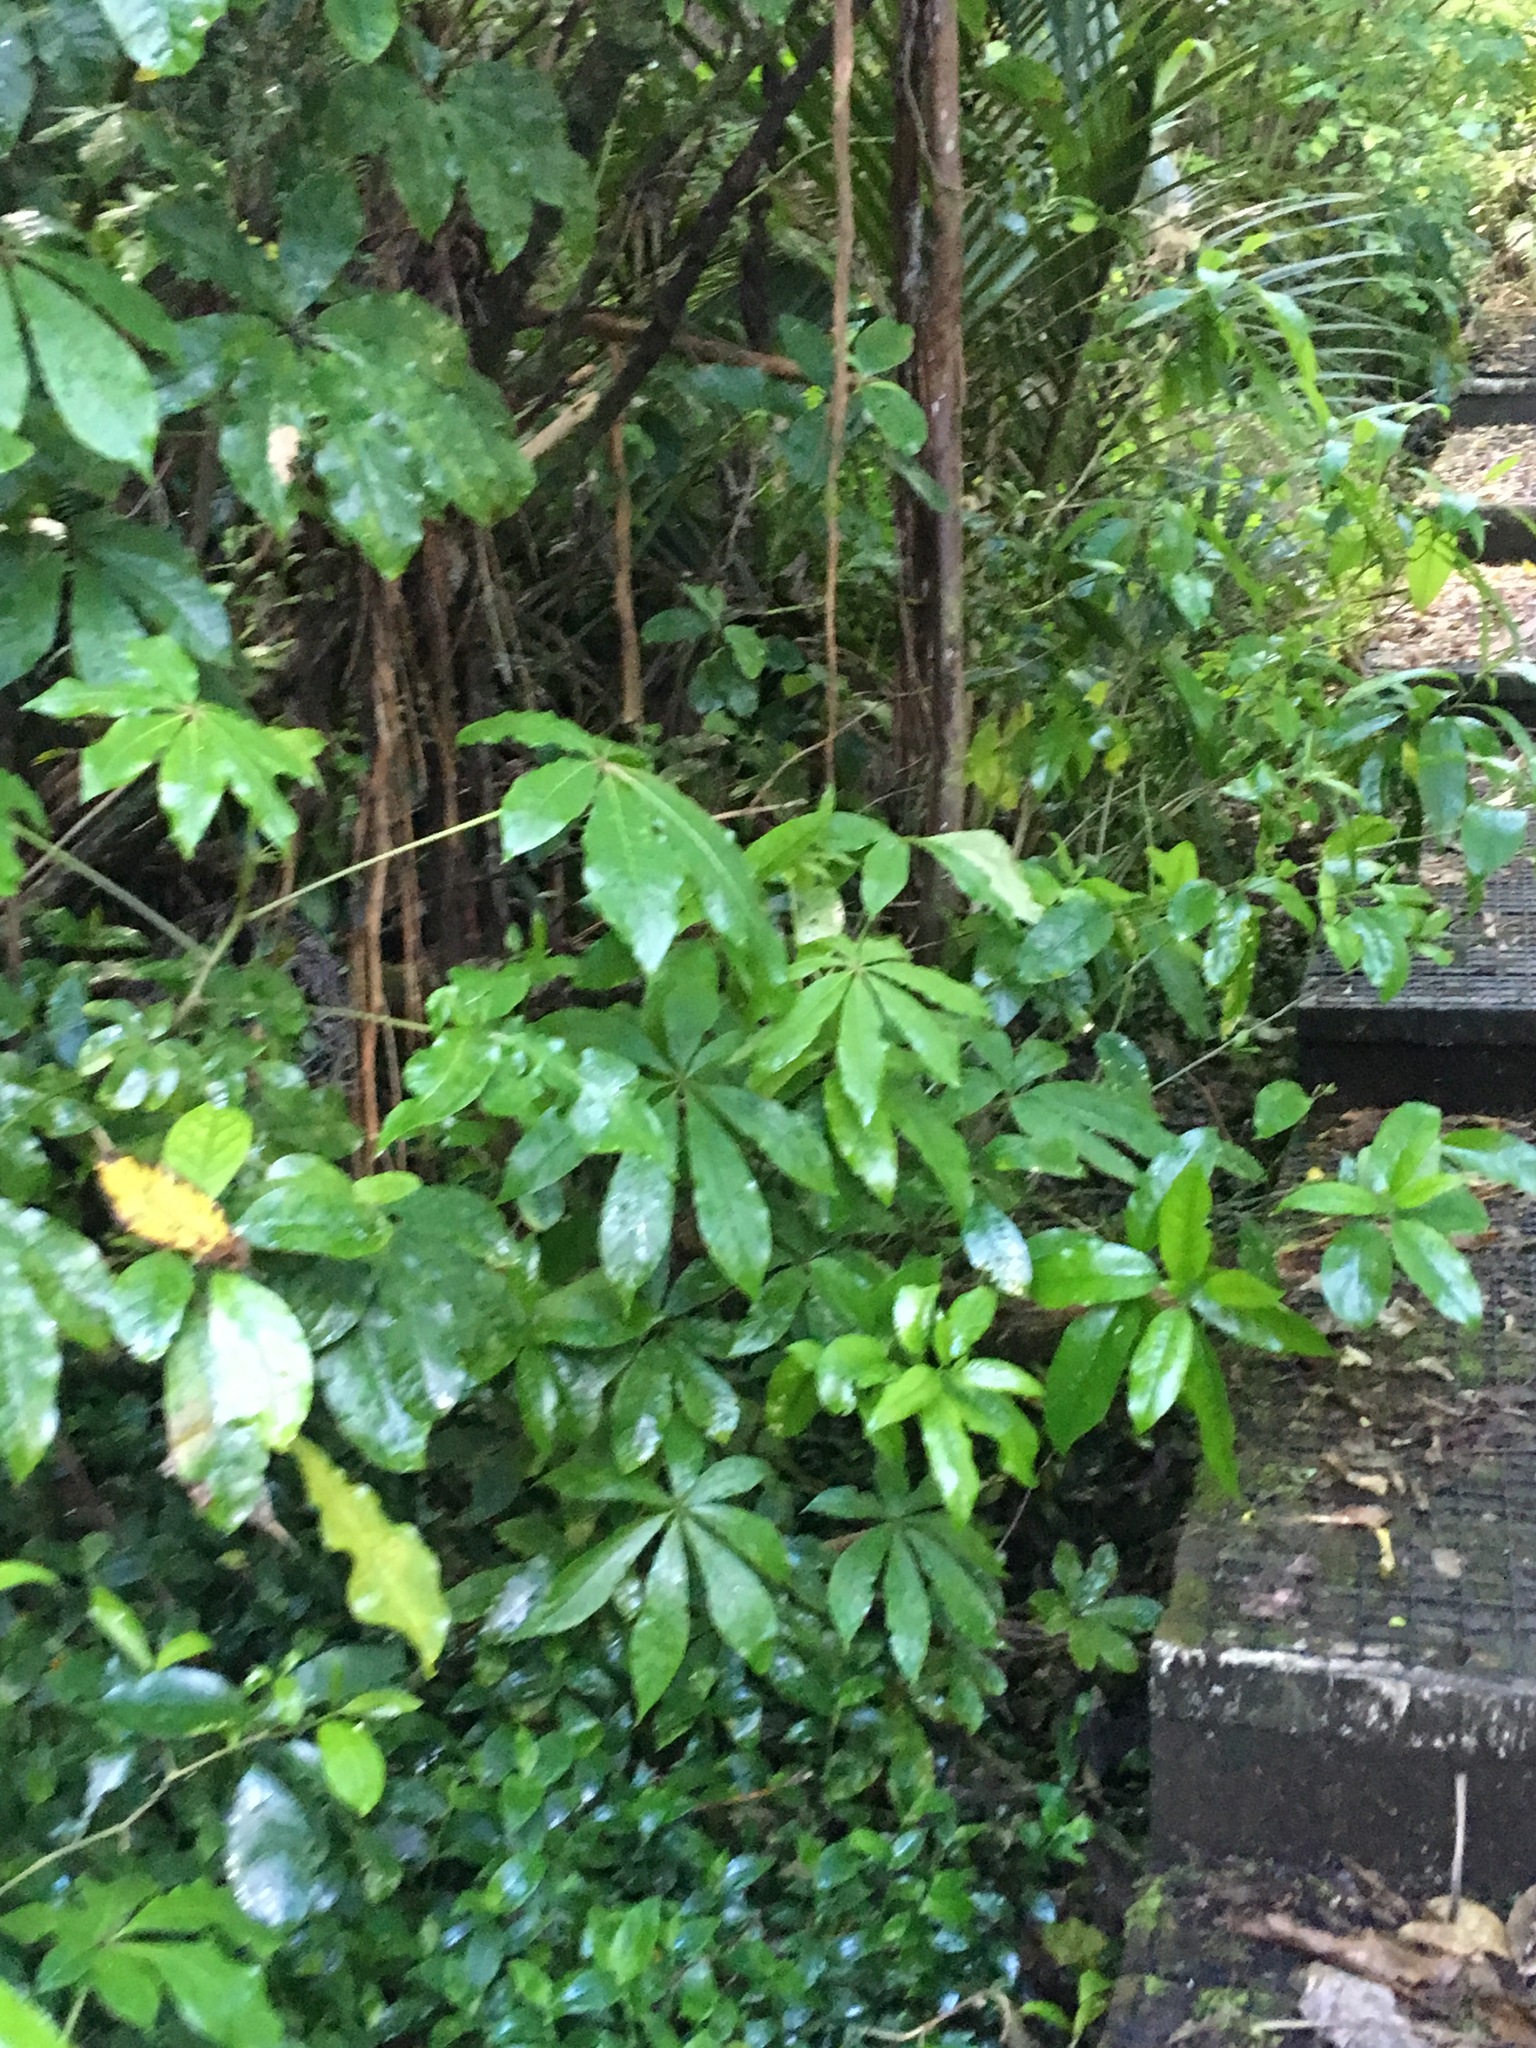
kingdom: Plantae
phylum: Tracheophyta
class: Magnoliopsida
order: Apiales
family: Araliaceae
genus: Schefflera
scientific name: Schefflera digitata
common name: Pate
